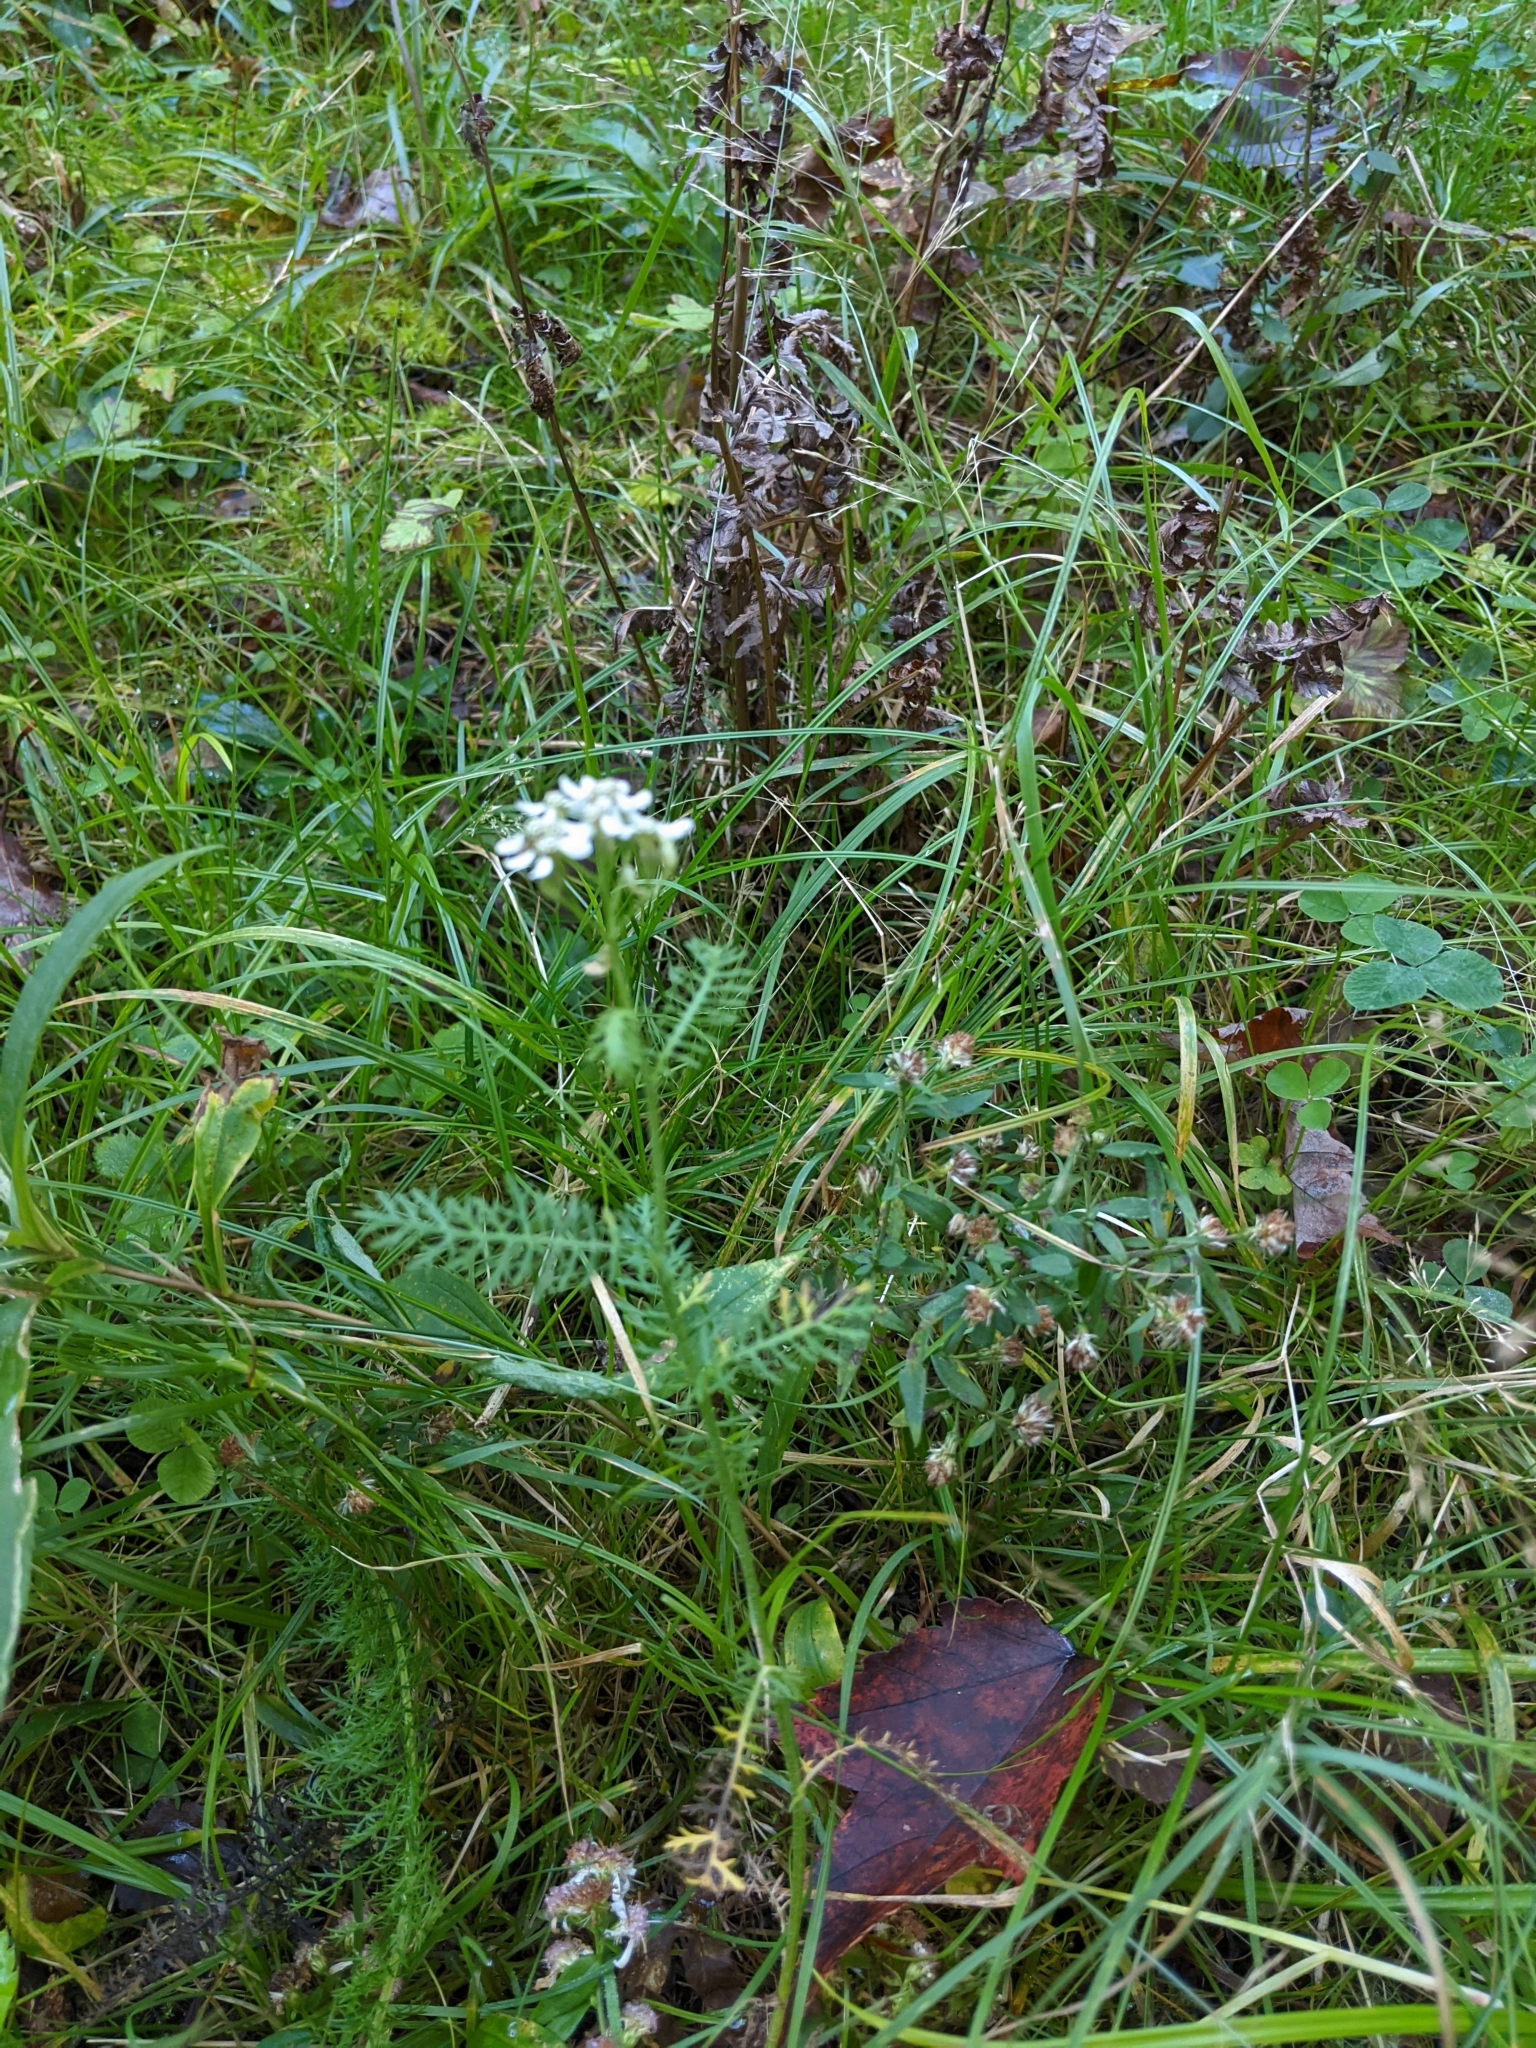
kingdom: Plantae
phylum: Tracheophyta
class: Magnoliopsida
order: Asterales
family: Asteraceae
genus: Achillea
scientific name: Achillea millefolium
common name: Yarrow
